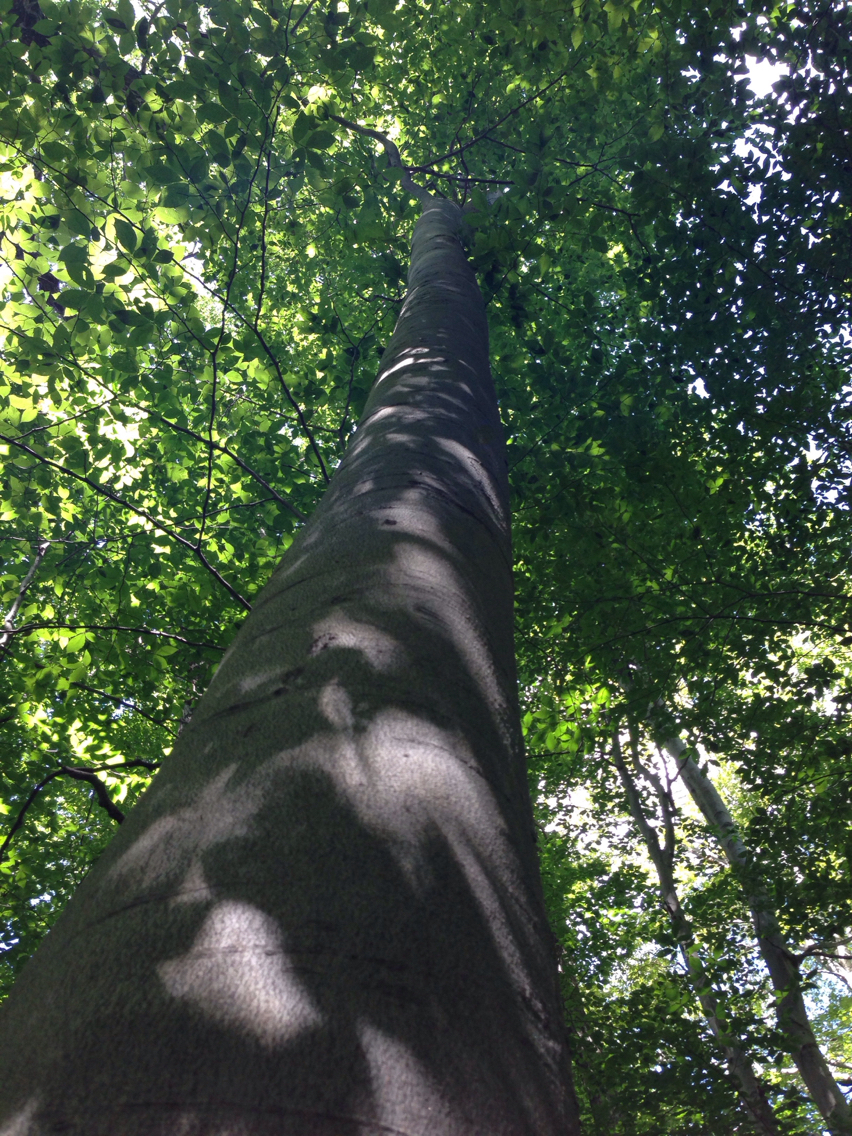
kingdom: Plantae
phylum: Tracheophyta
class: Magnoliopsida
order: Fagales
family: Fagaceae
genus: Fagus
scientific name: Fagus grandifolia
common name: American beech
